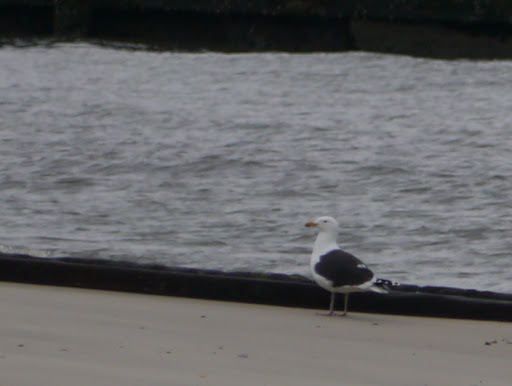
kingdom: Animalia
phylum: Chordata
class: Aves
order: Charadriiformes
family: Laridae
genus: Larus
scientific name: Larus marinus
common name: Great black-backed gull
